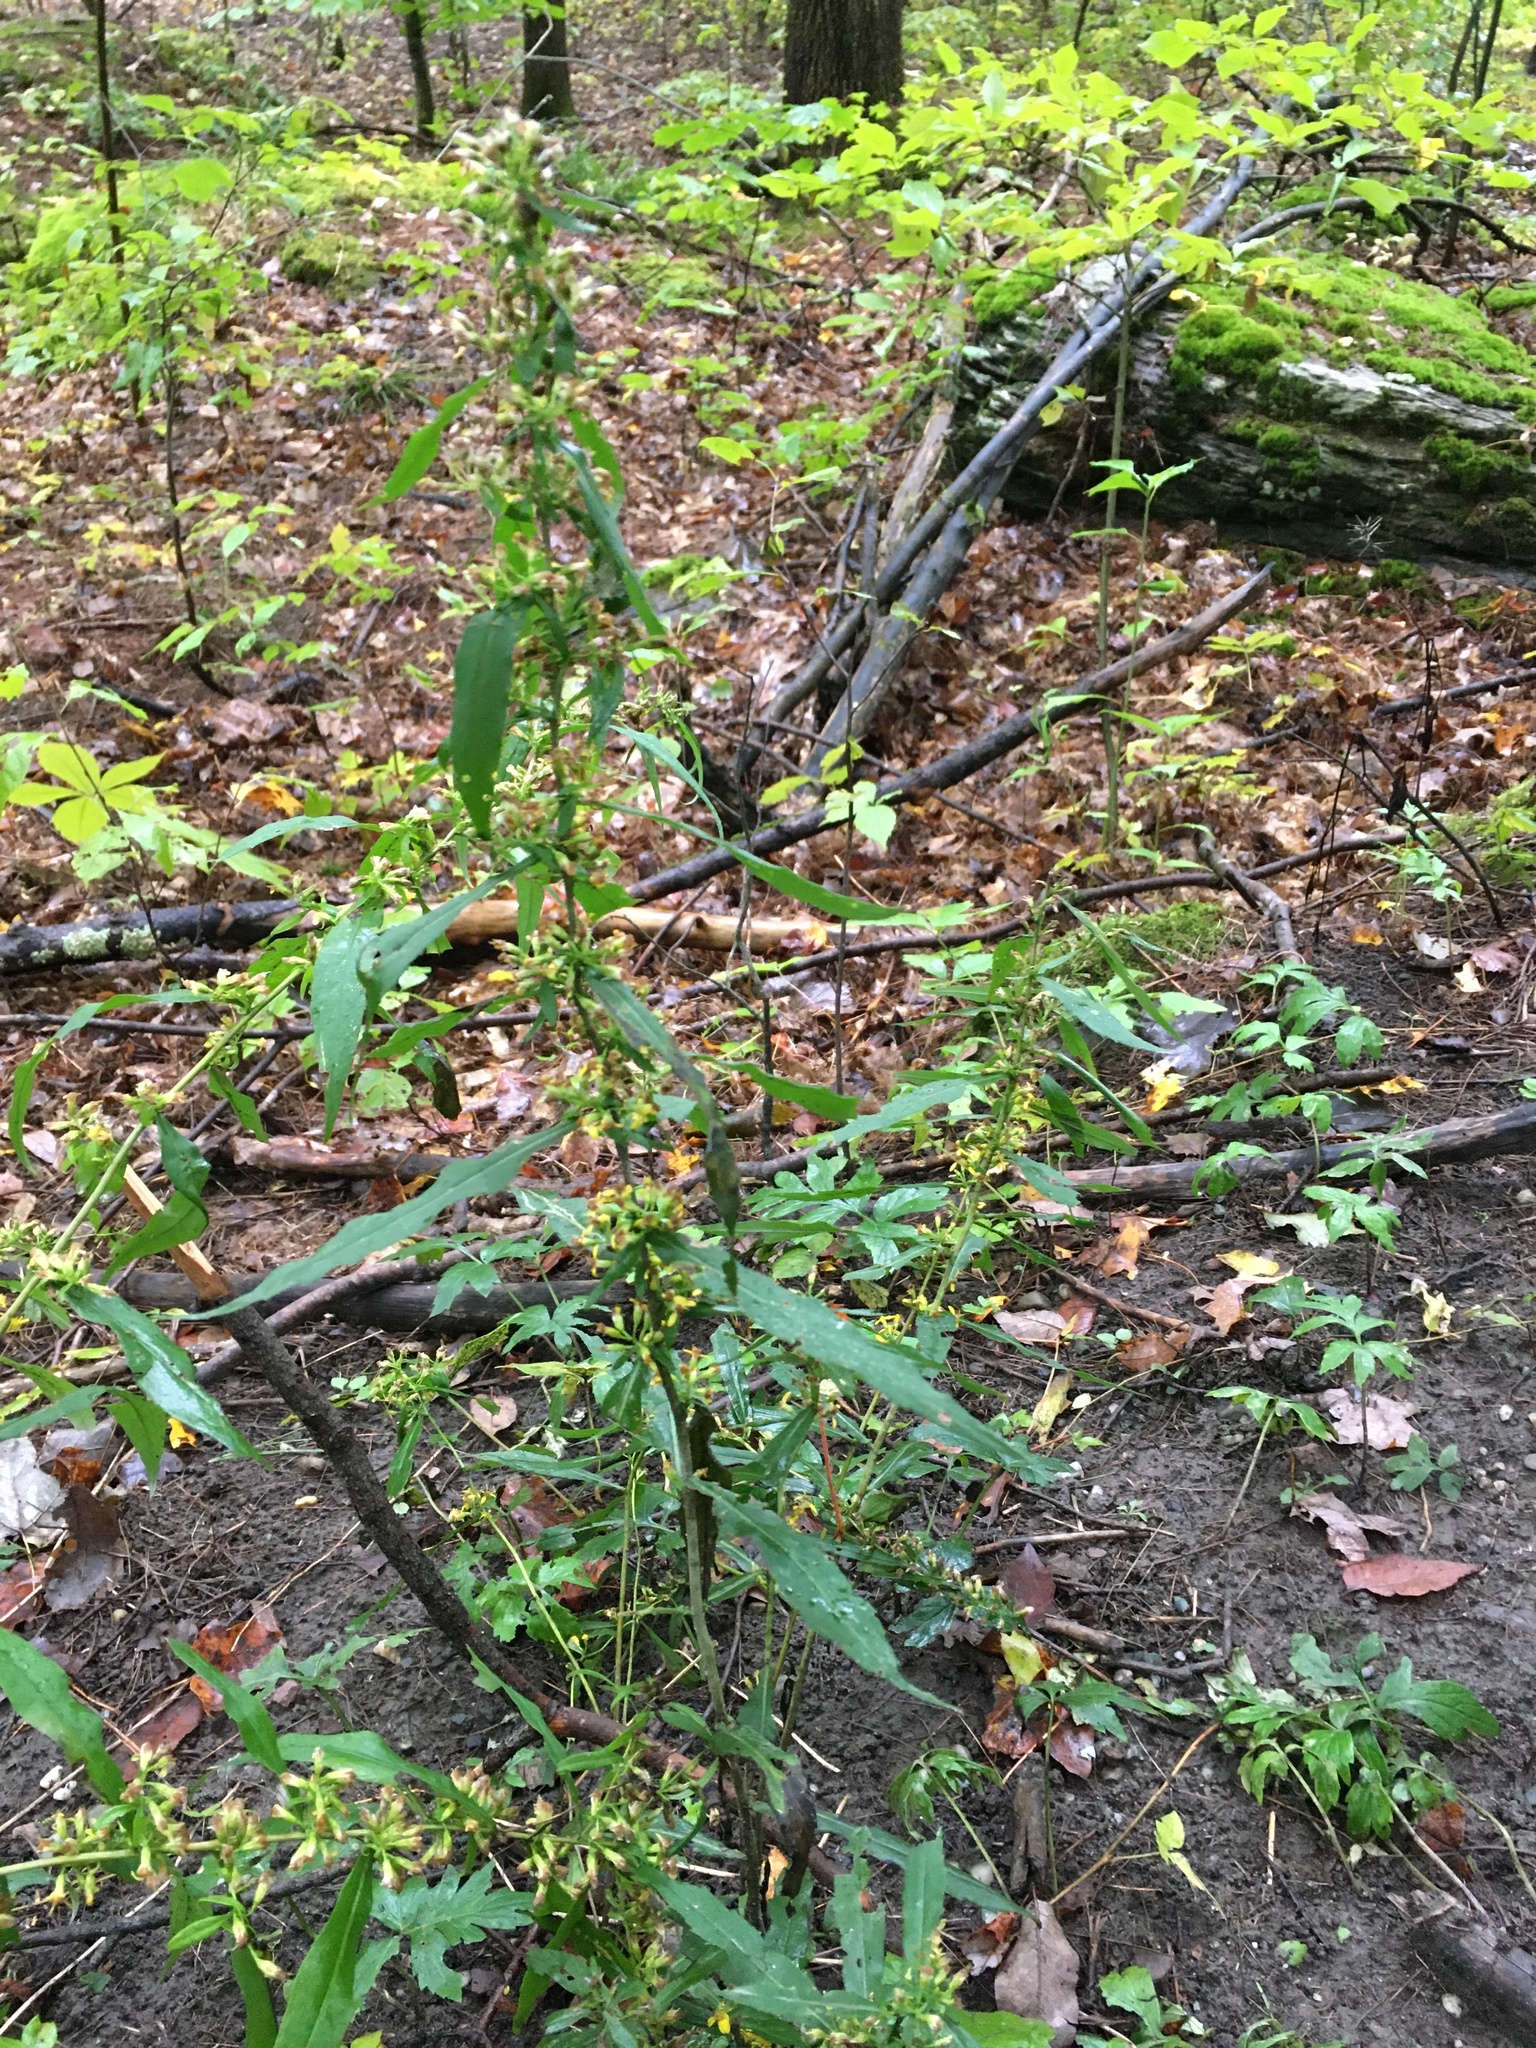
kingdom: Plantae
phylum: Tracheophyta
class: Magnoliopsida
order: Asterales
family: Asteraceae
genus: Solidago
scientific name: Solidago caesia
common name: Woodland goldenrod
